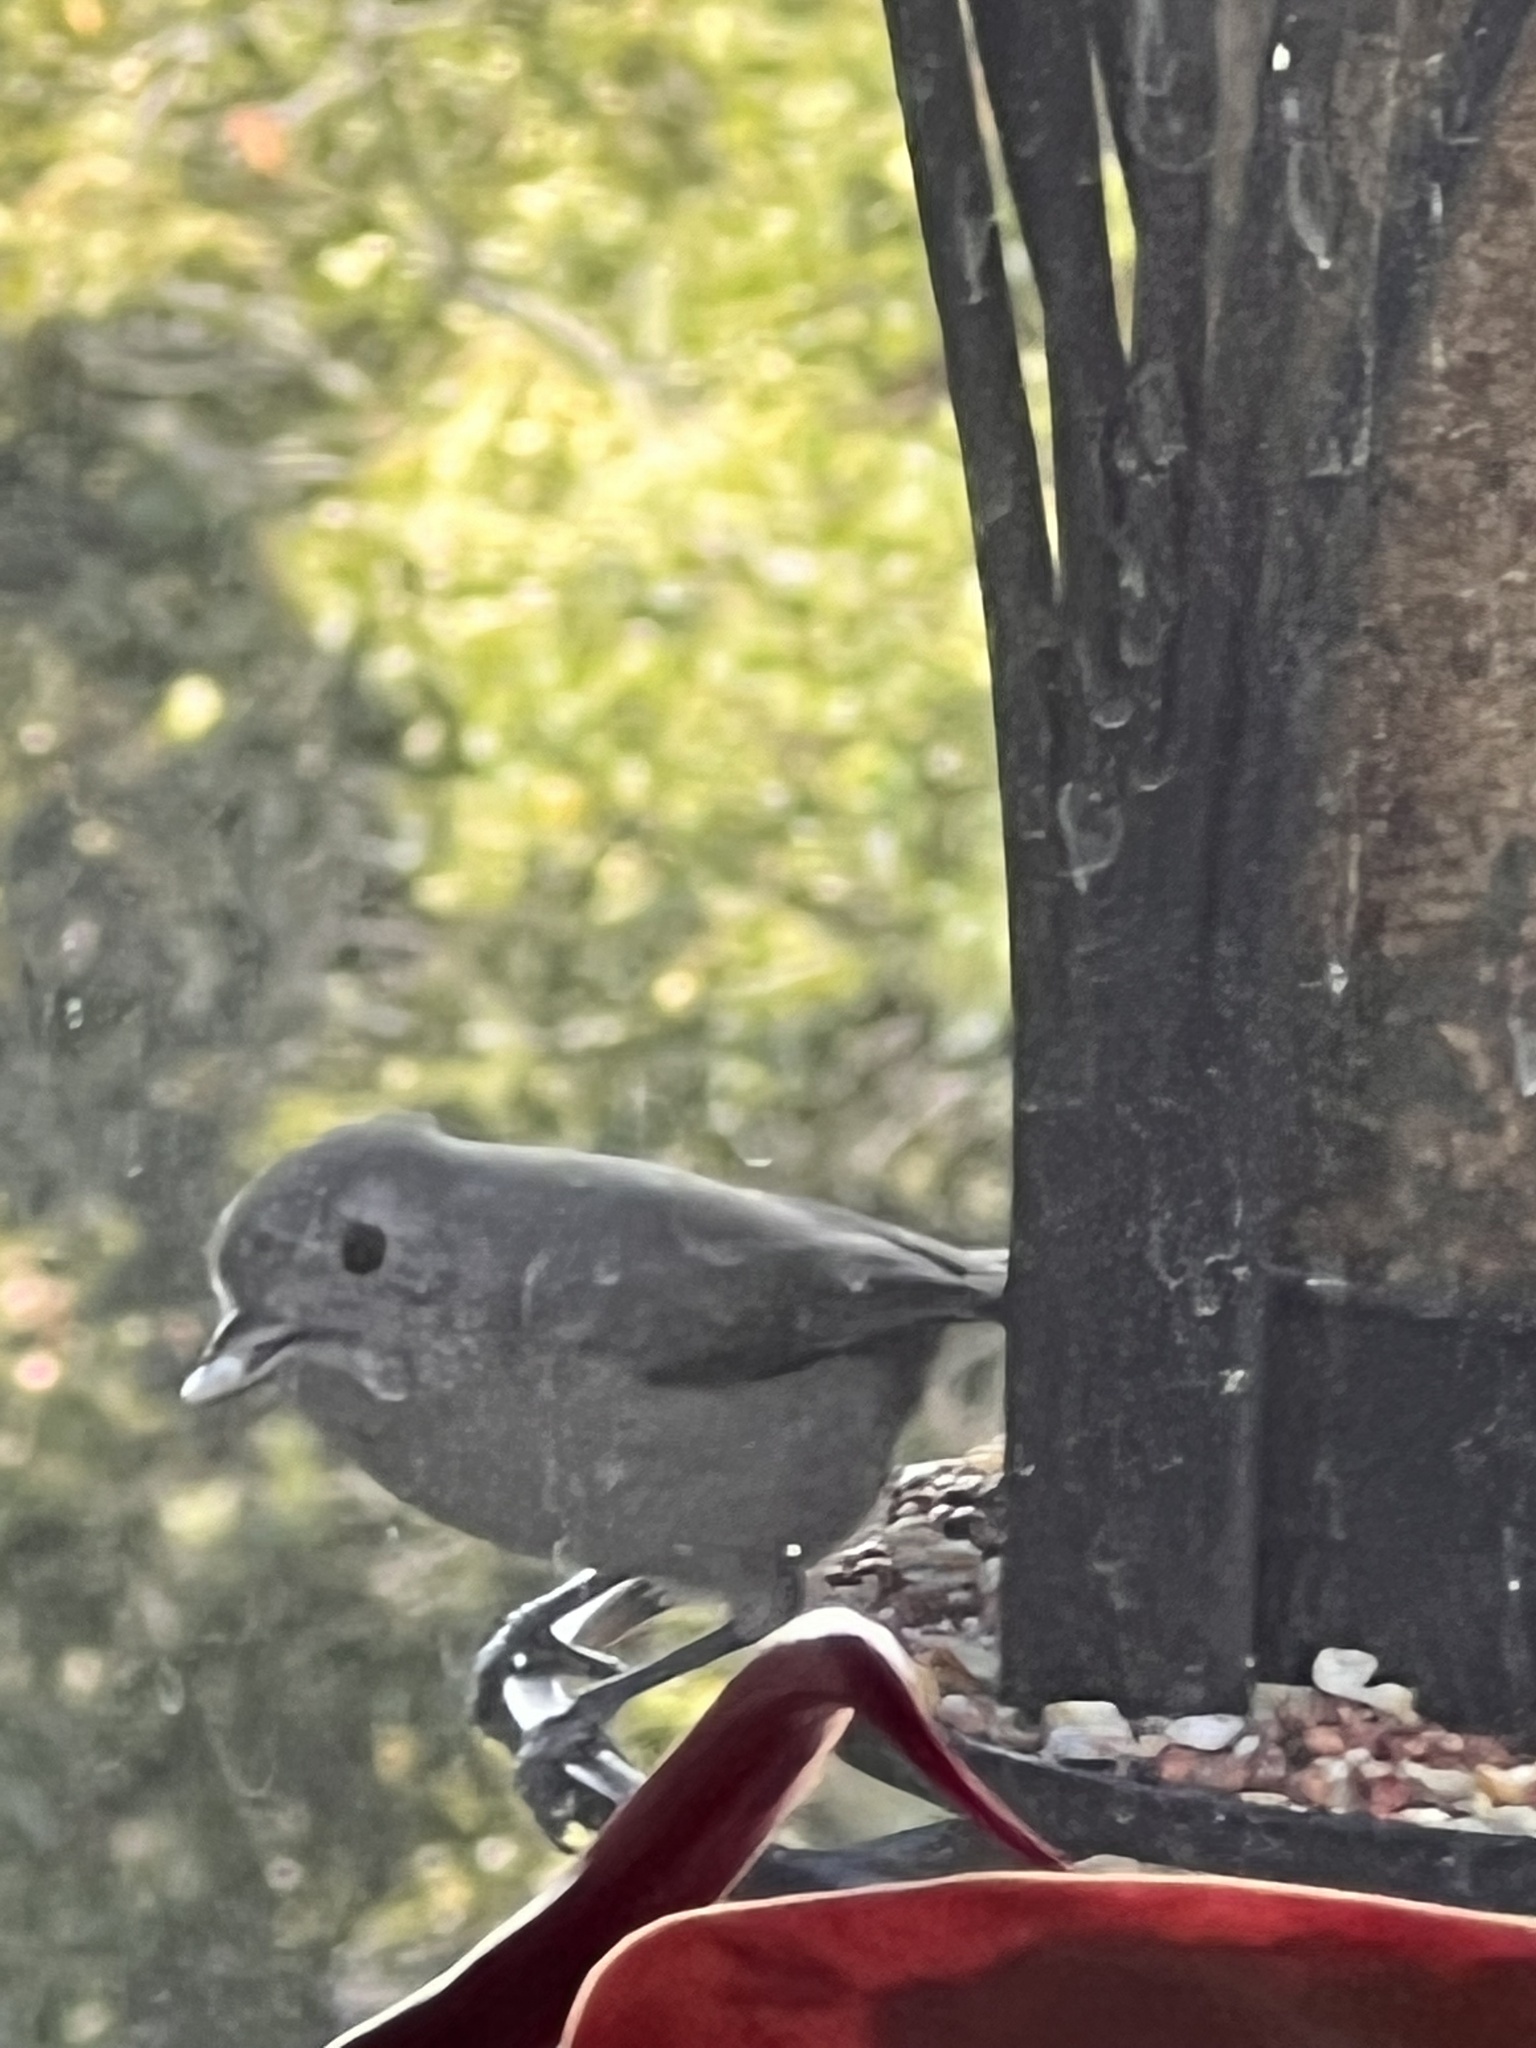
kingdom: Animalia
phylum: Chordata
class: Aves
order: Passeriformes
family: Paridae
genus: Baeolophus
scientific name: Baeolophus inornatus
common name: Oak titmouse
